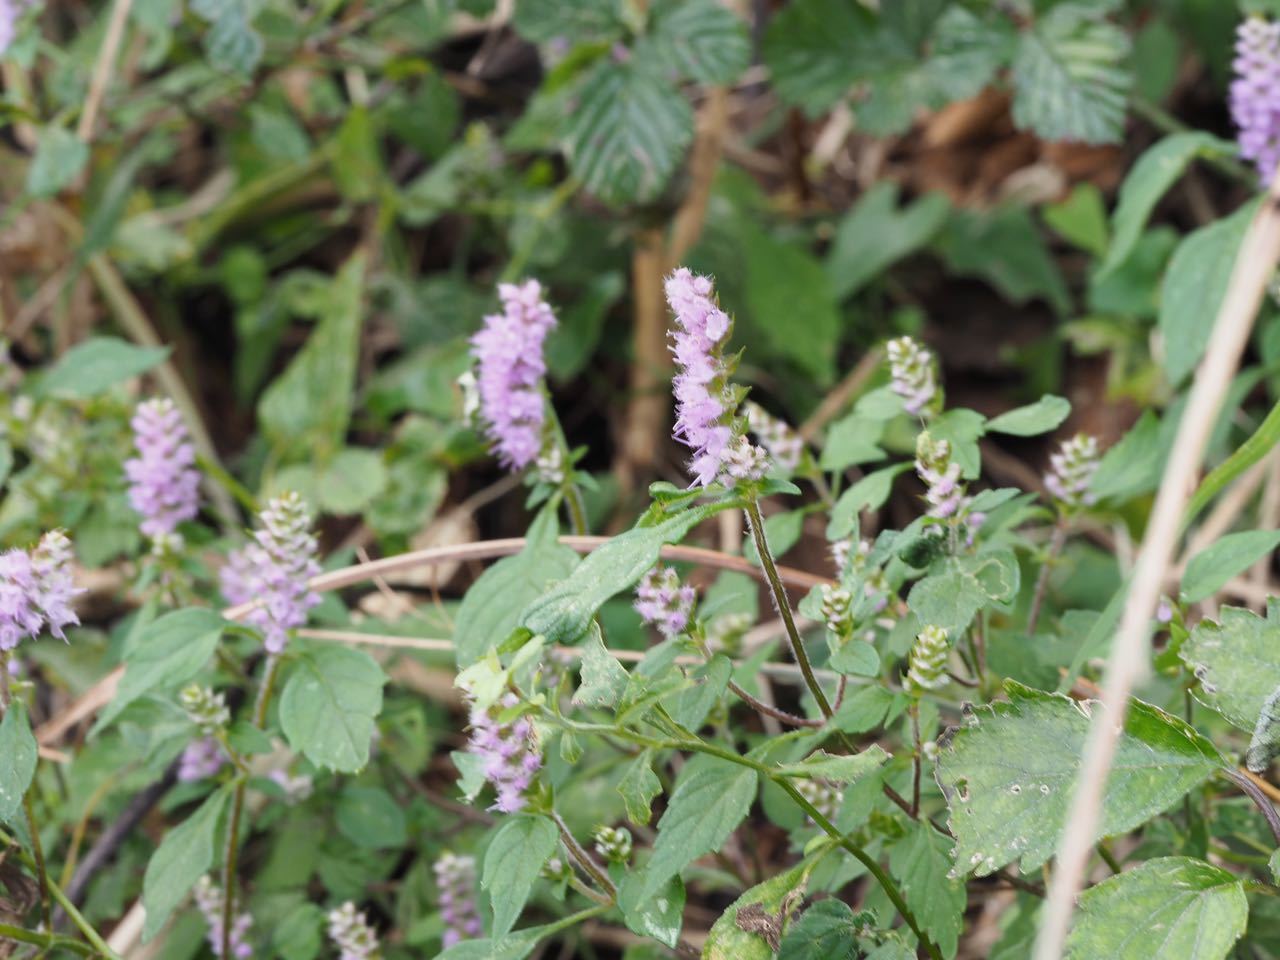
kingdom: Plantae
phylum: Tracheophyta
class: Magnoliopsida
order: Lamiales
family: Lamiaceae
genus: Elsholtzia
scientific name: Elsholtzia ciliata
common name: Ciliate elsholtzia
